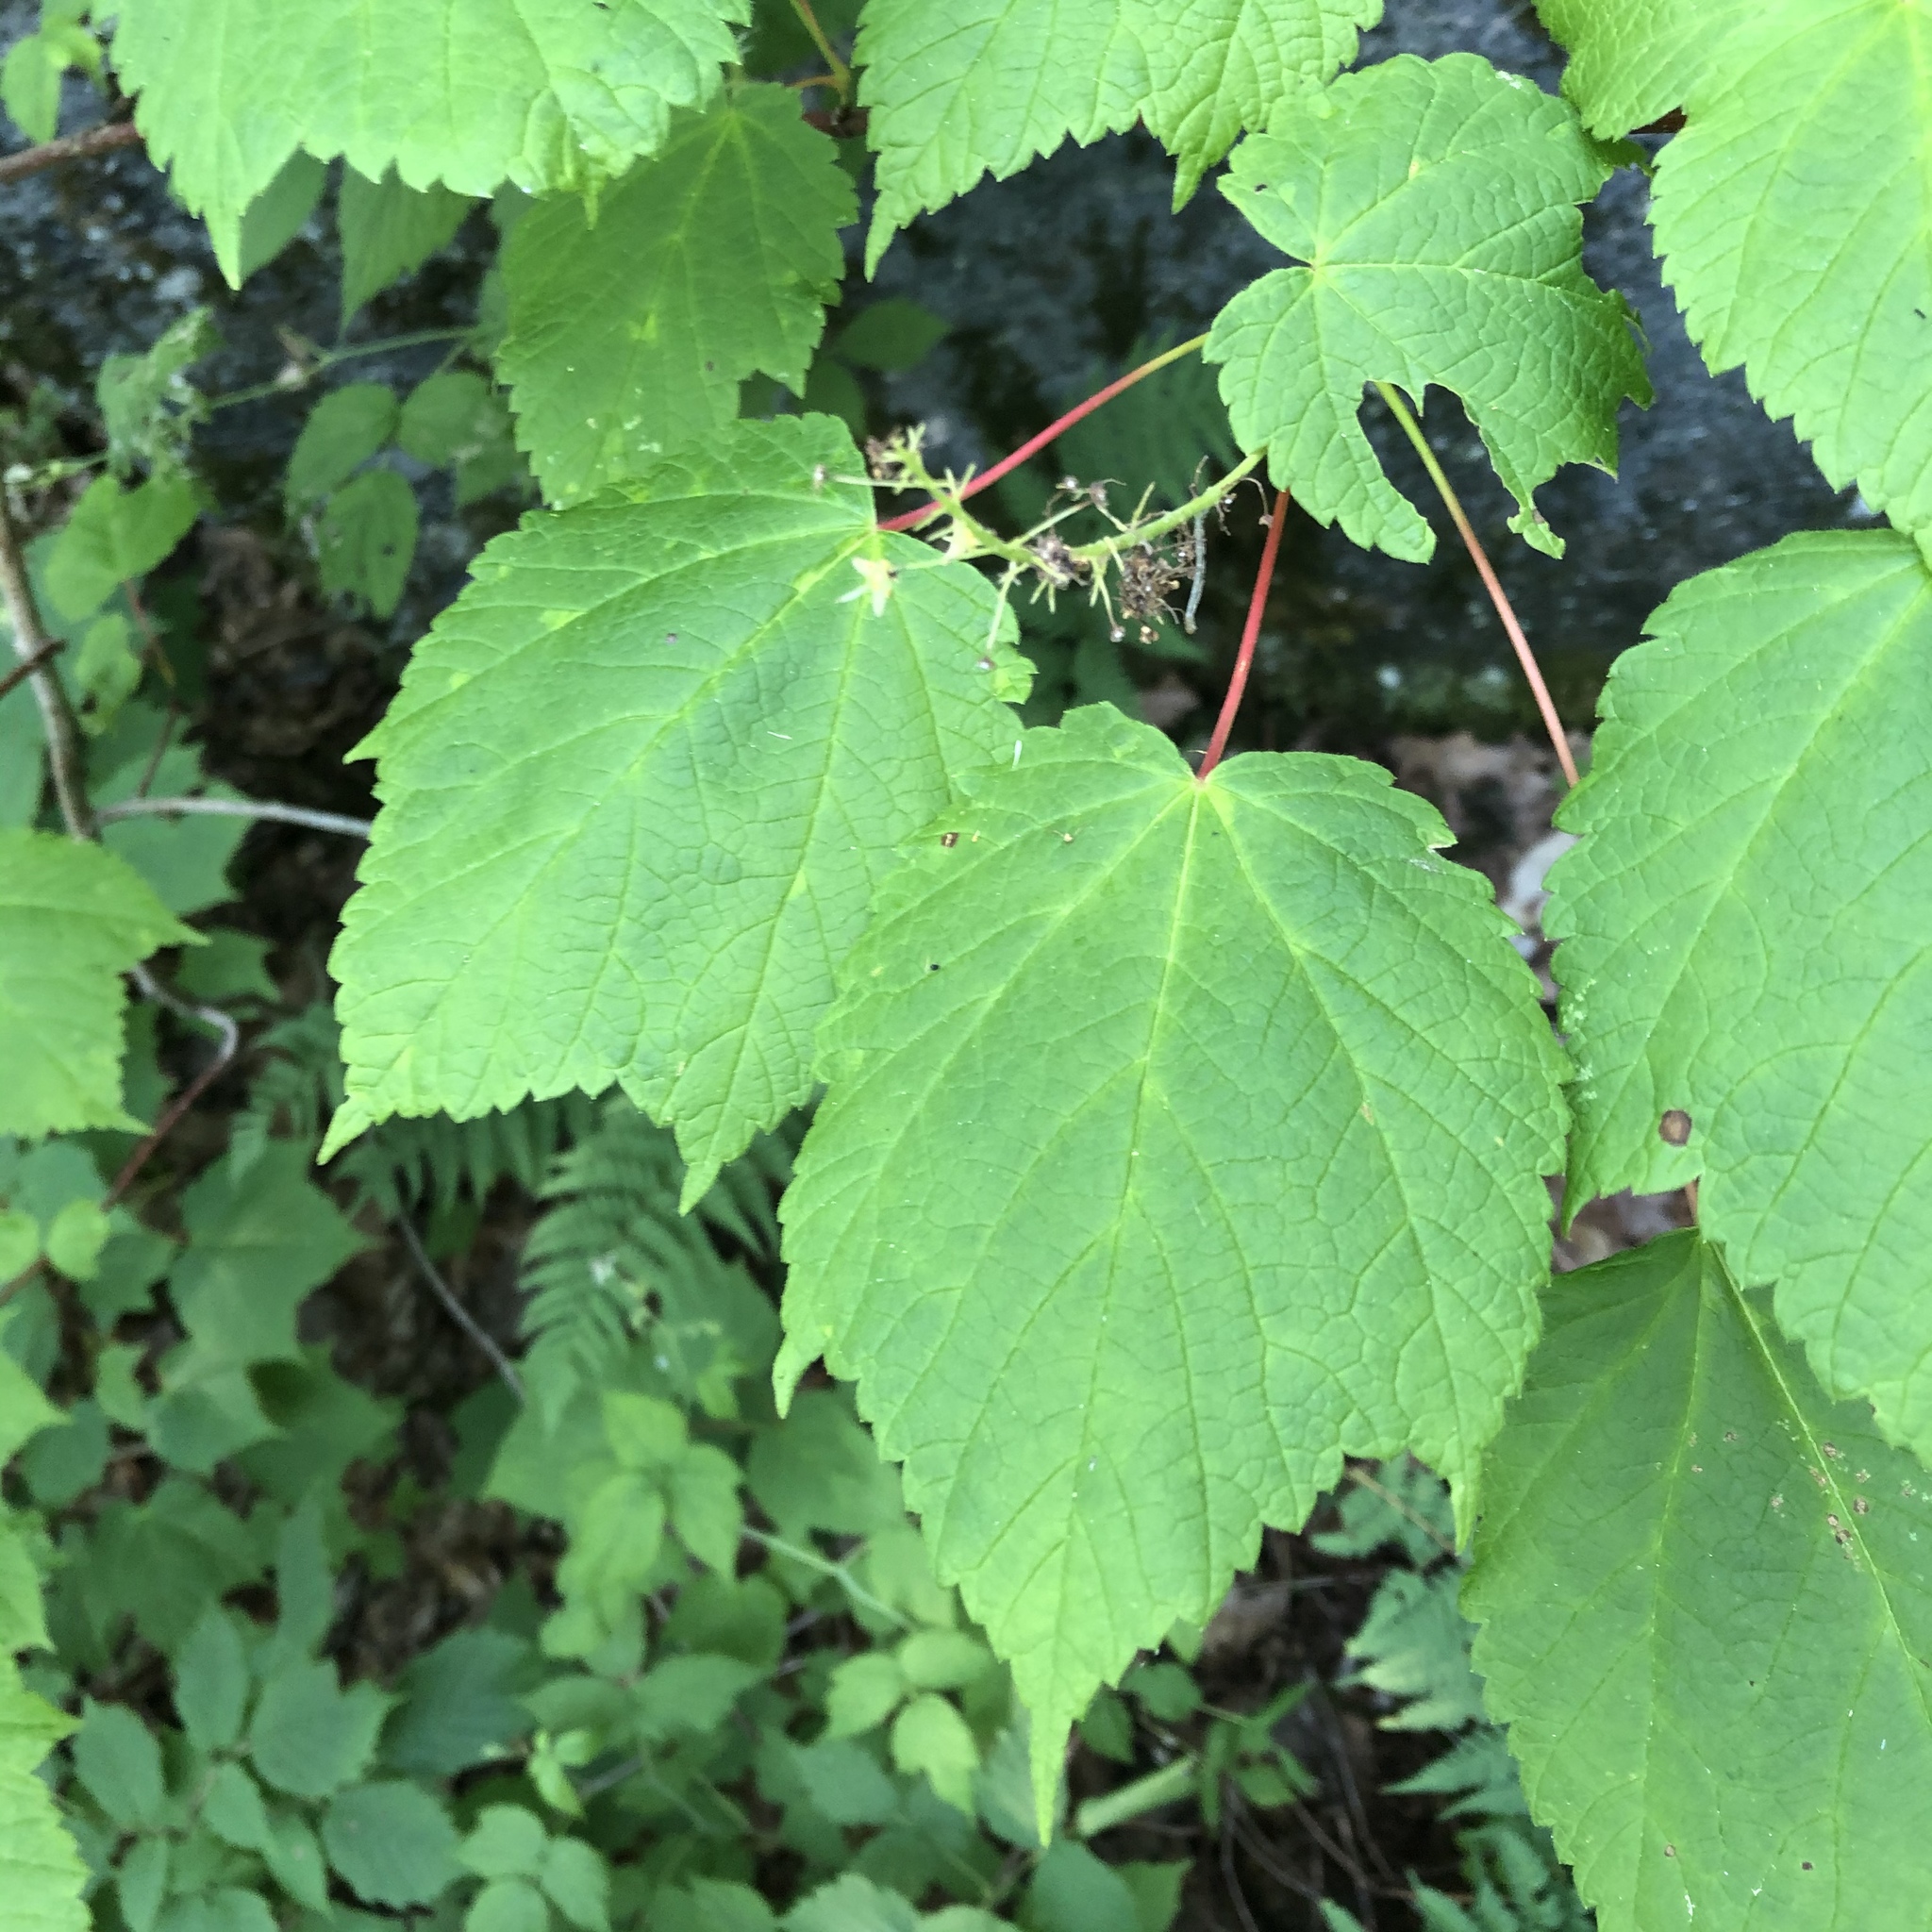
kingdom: Plantae
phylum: Tracheophyta
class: Magnoliopsida
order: Sapindales
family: Sapindaceae
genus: Acer
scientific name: Acer spicatum
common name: Mountain maple
